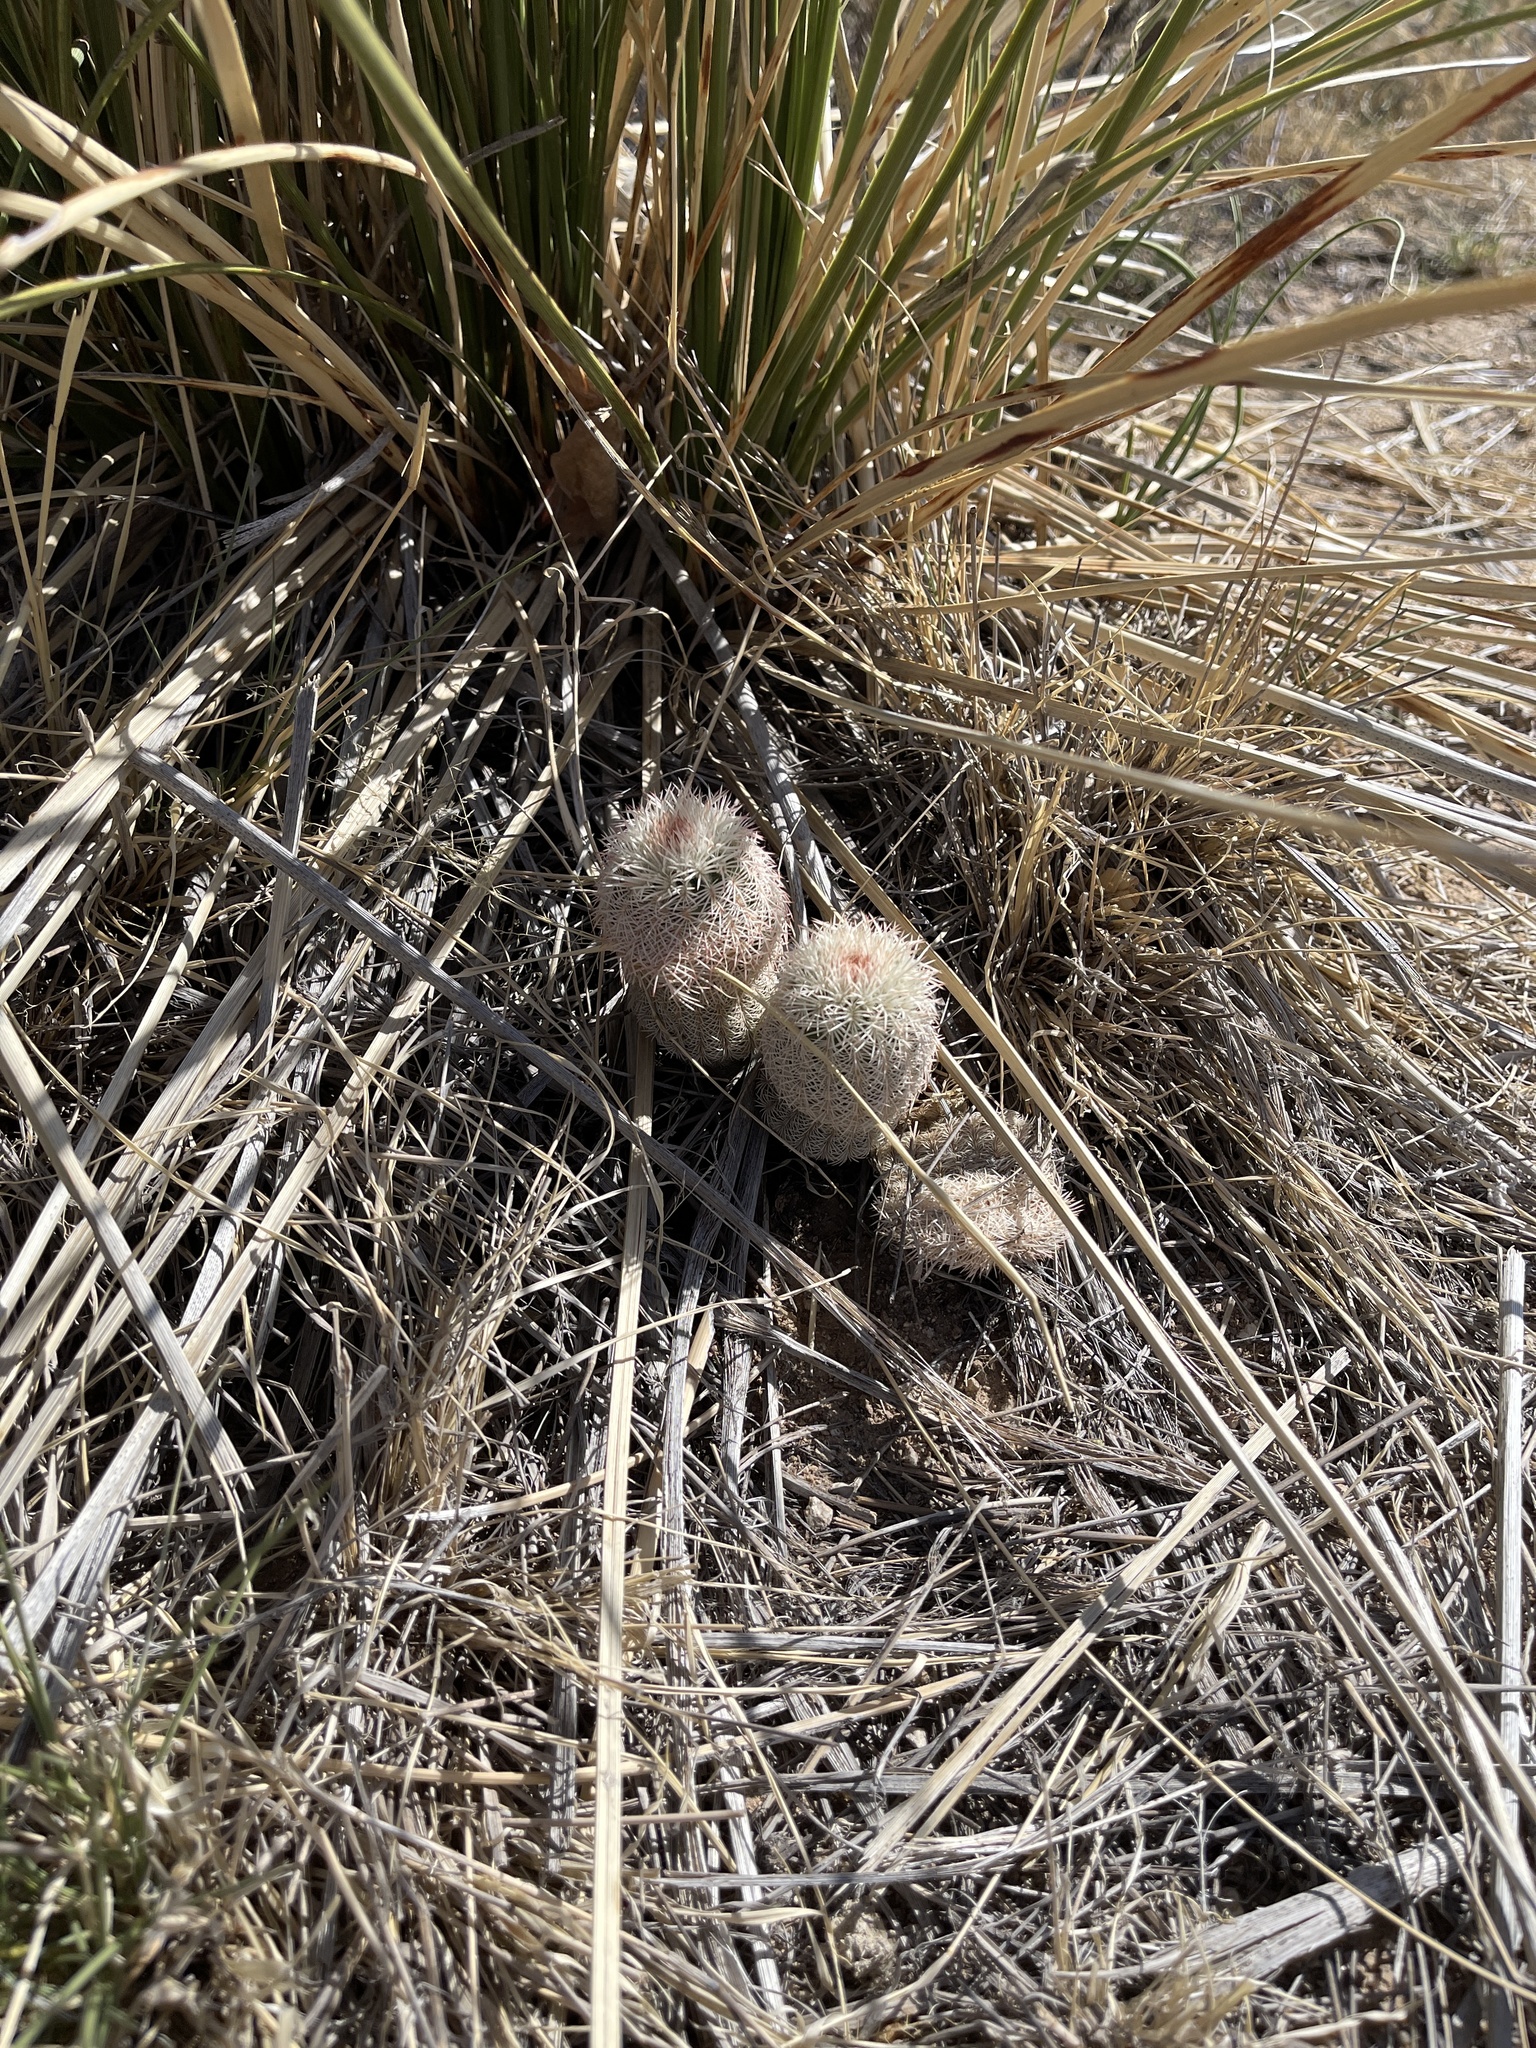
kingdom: Plantae
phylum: Tracheophyta
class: Magnoliopsida
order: Caryophyllales
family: Cactaceae
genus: Echinocereus
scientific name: Echinocereus rigidissimus
